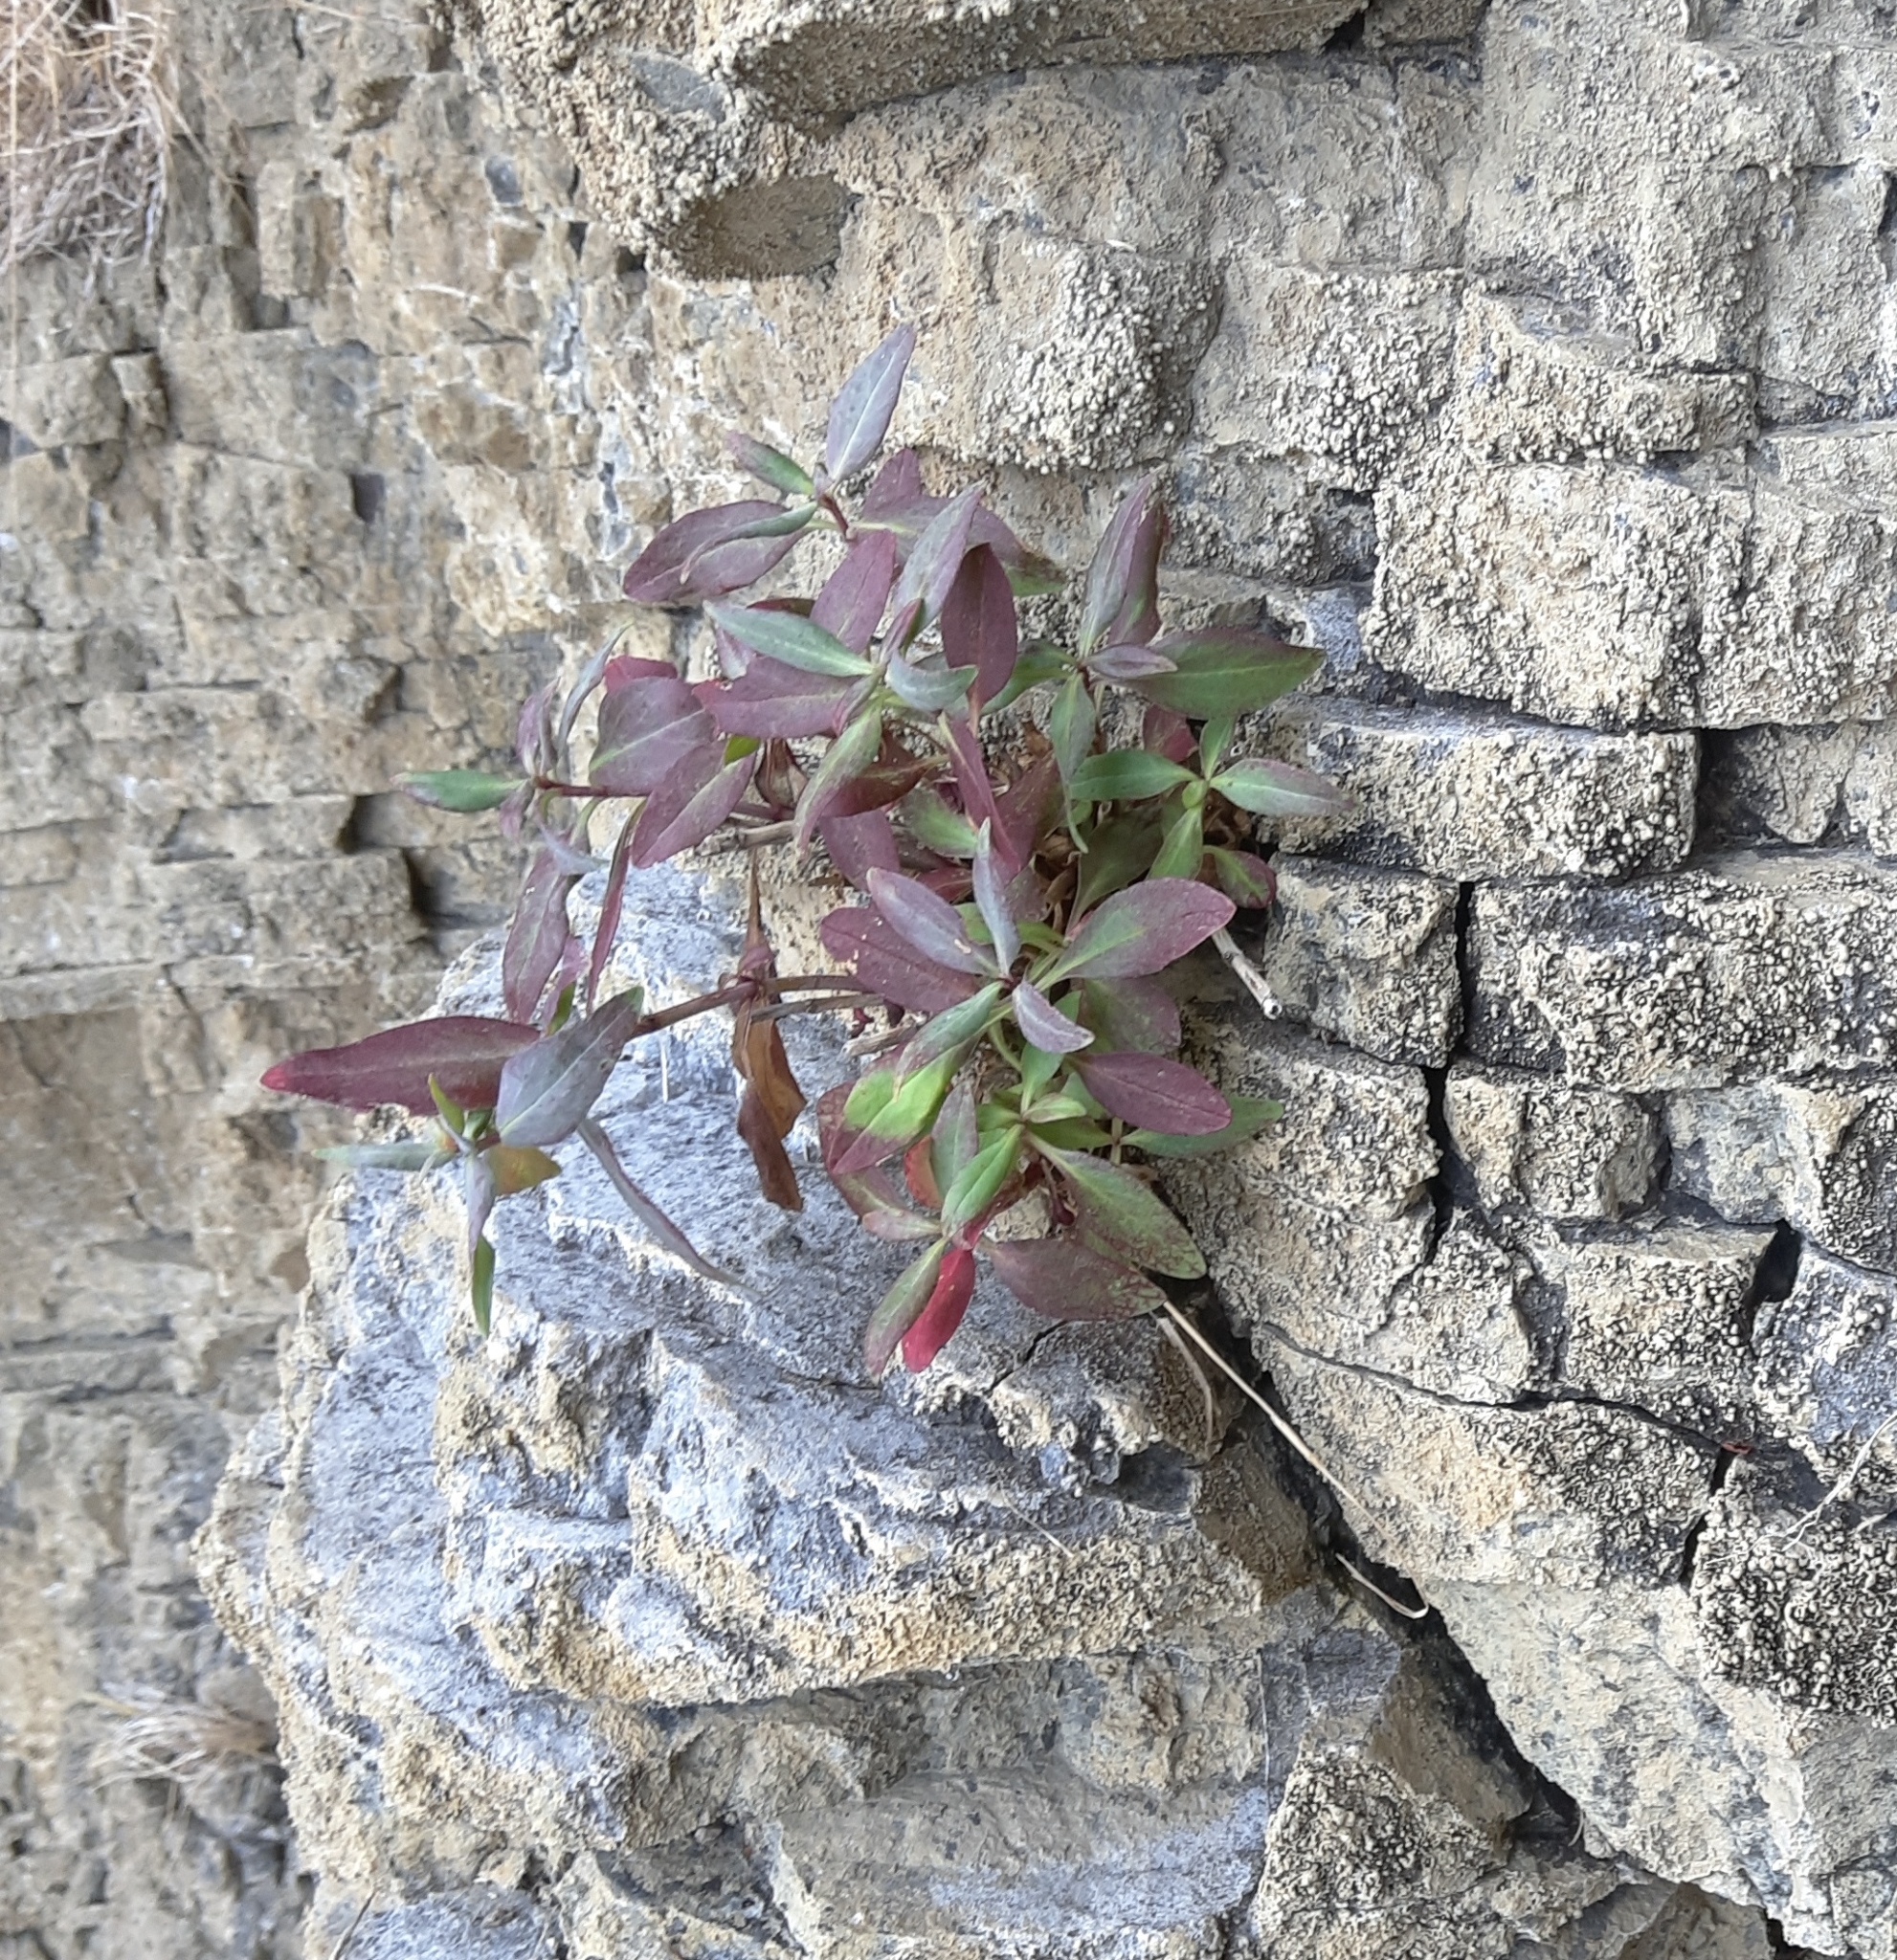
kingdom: Plantae
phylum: Tracheophyta
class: Magnoliopsida
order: Dipsacales
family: Caprifoliaceae
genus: Centranthus
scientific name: Centranthus ruber
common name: Red valerian
